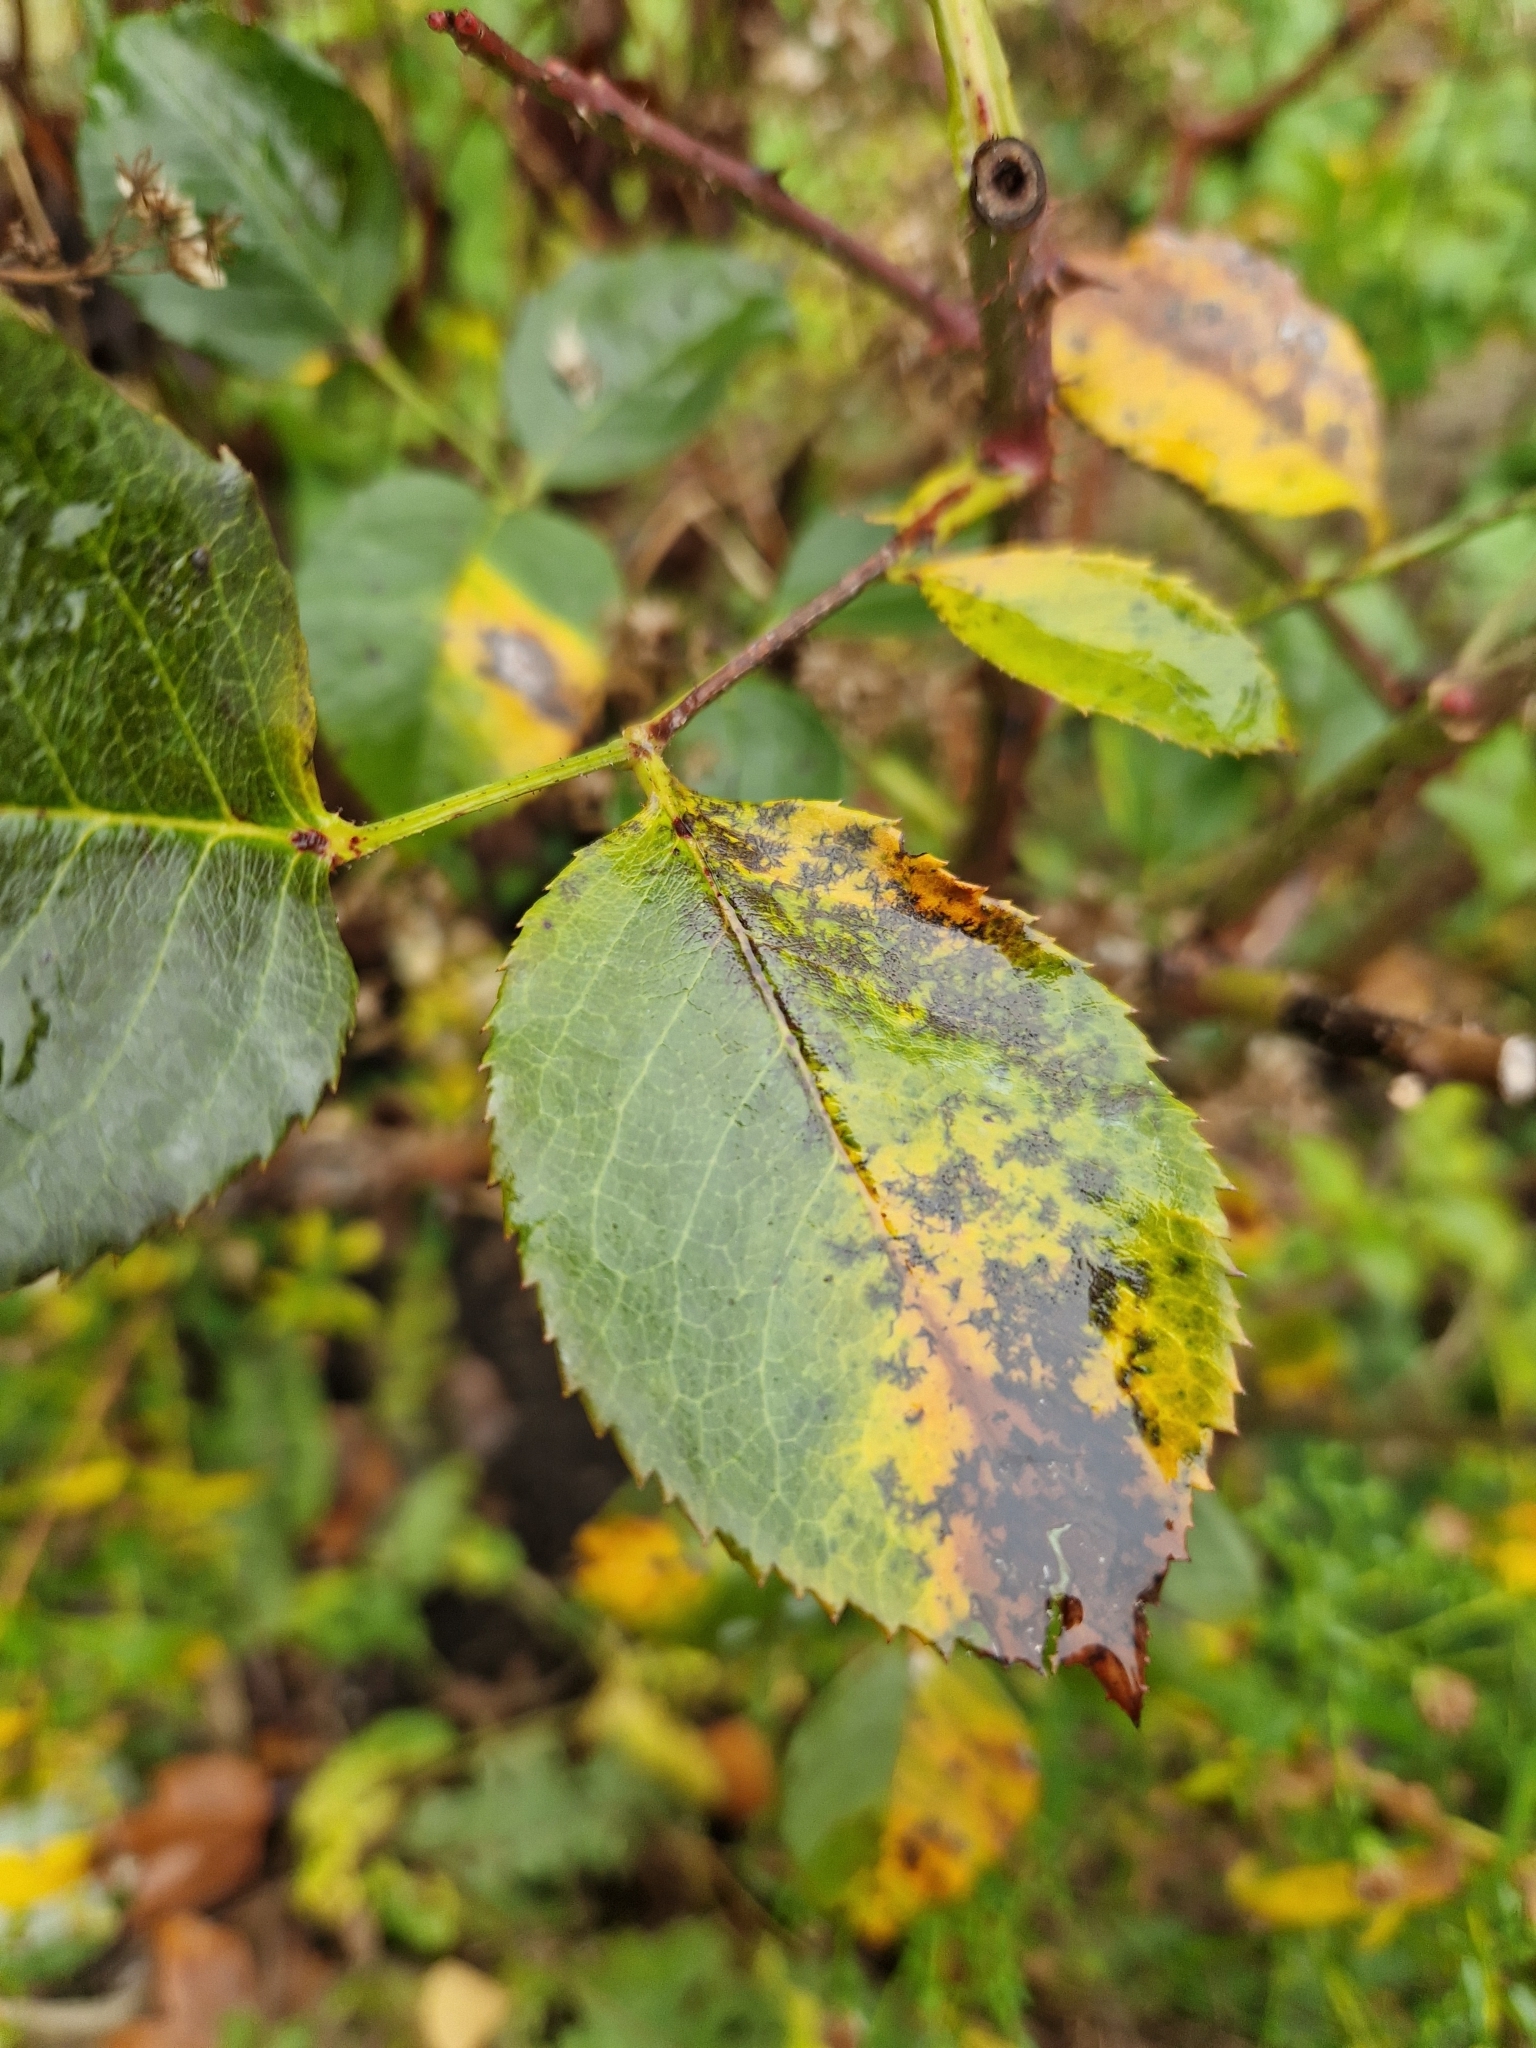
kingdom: Fungi
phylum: Ascomycota
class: Leotiomycetes
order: Helotiales
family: Drepanopezizaceae
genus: Diplocarpon
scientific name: Diplocarpon rosae
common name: Rose black-spot
